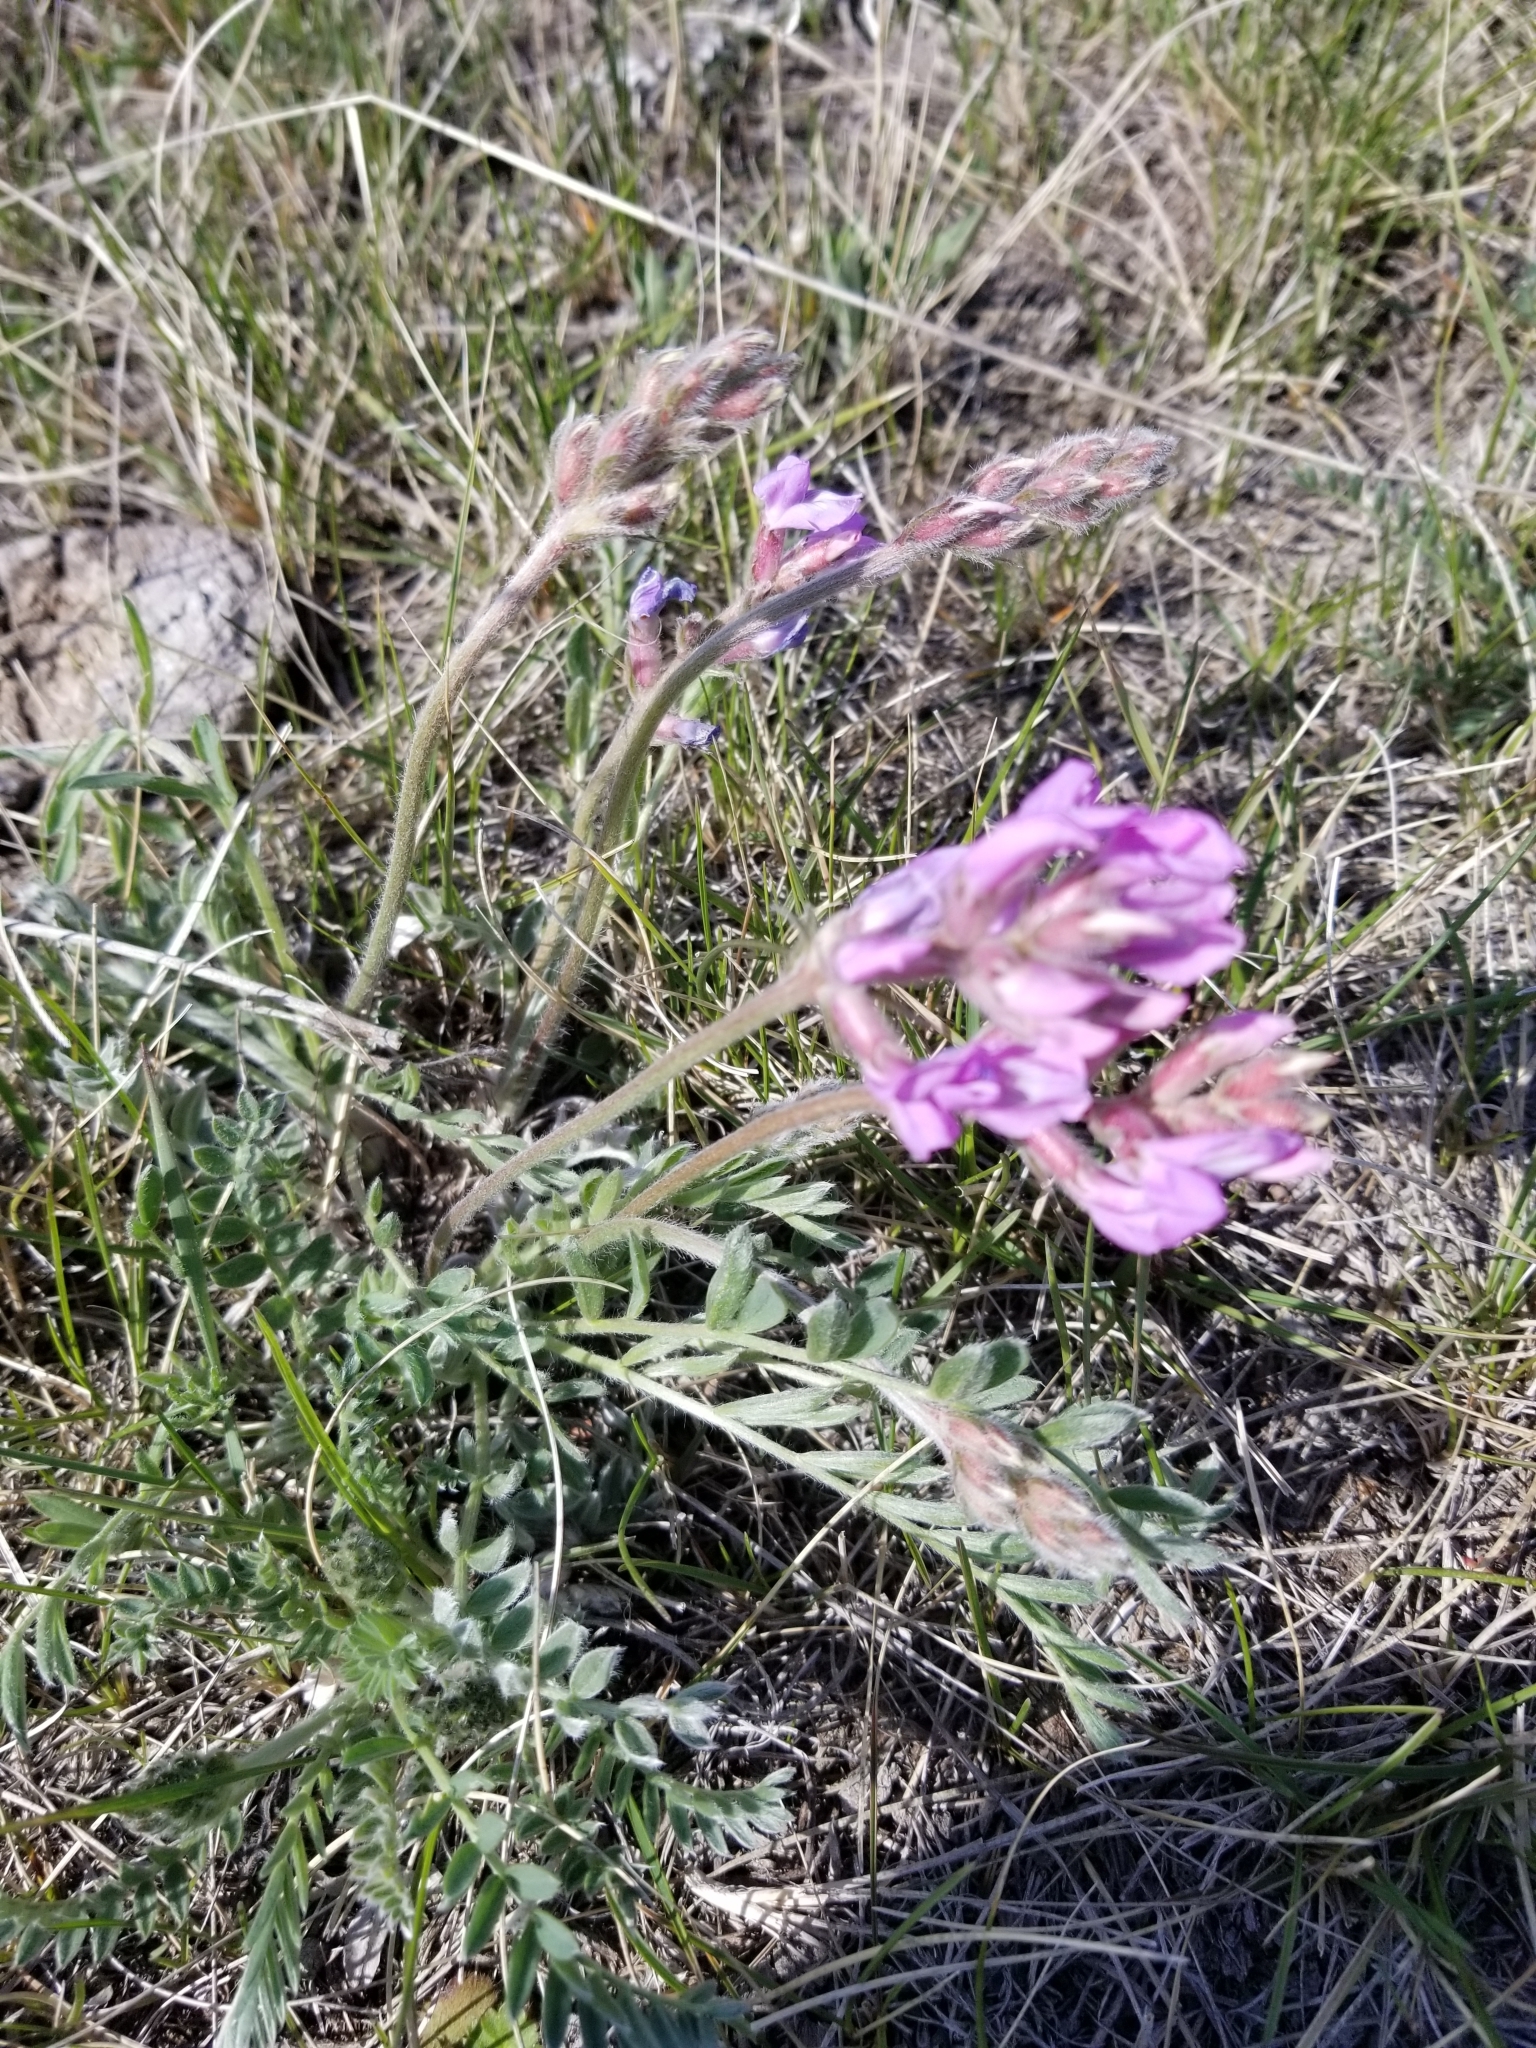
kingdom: Plantae
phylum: Tracheophyta
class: Magnoliopsida
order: Fabales
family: Fabaceae
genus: Oxytropis
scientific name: Oxytropis lambertii
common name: Purple locoweed
